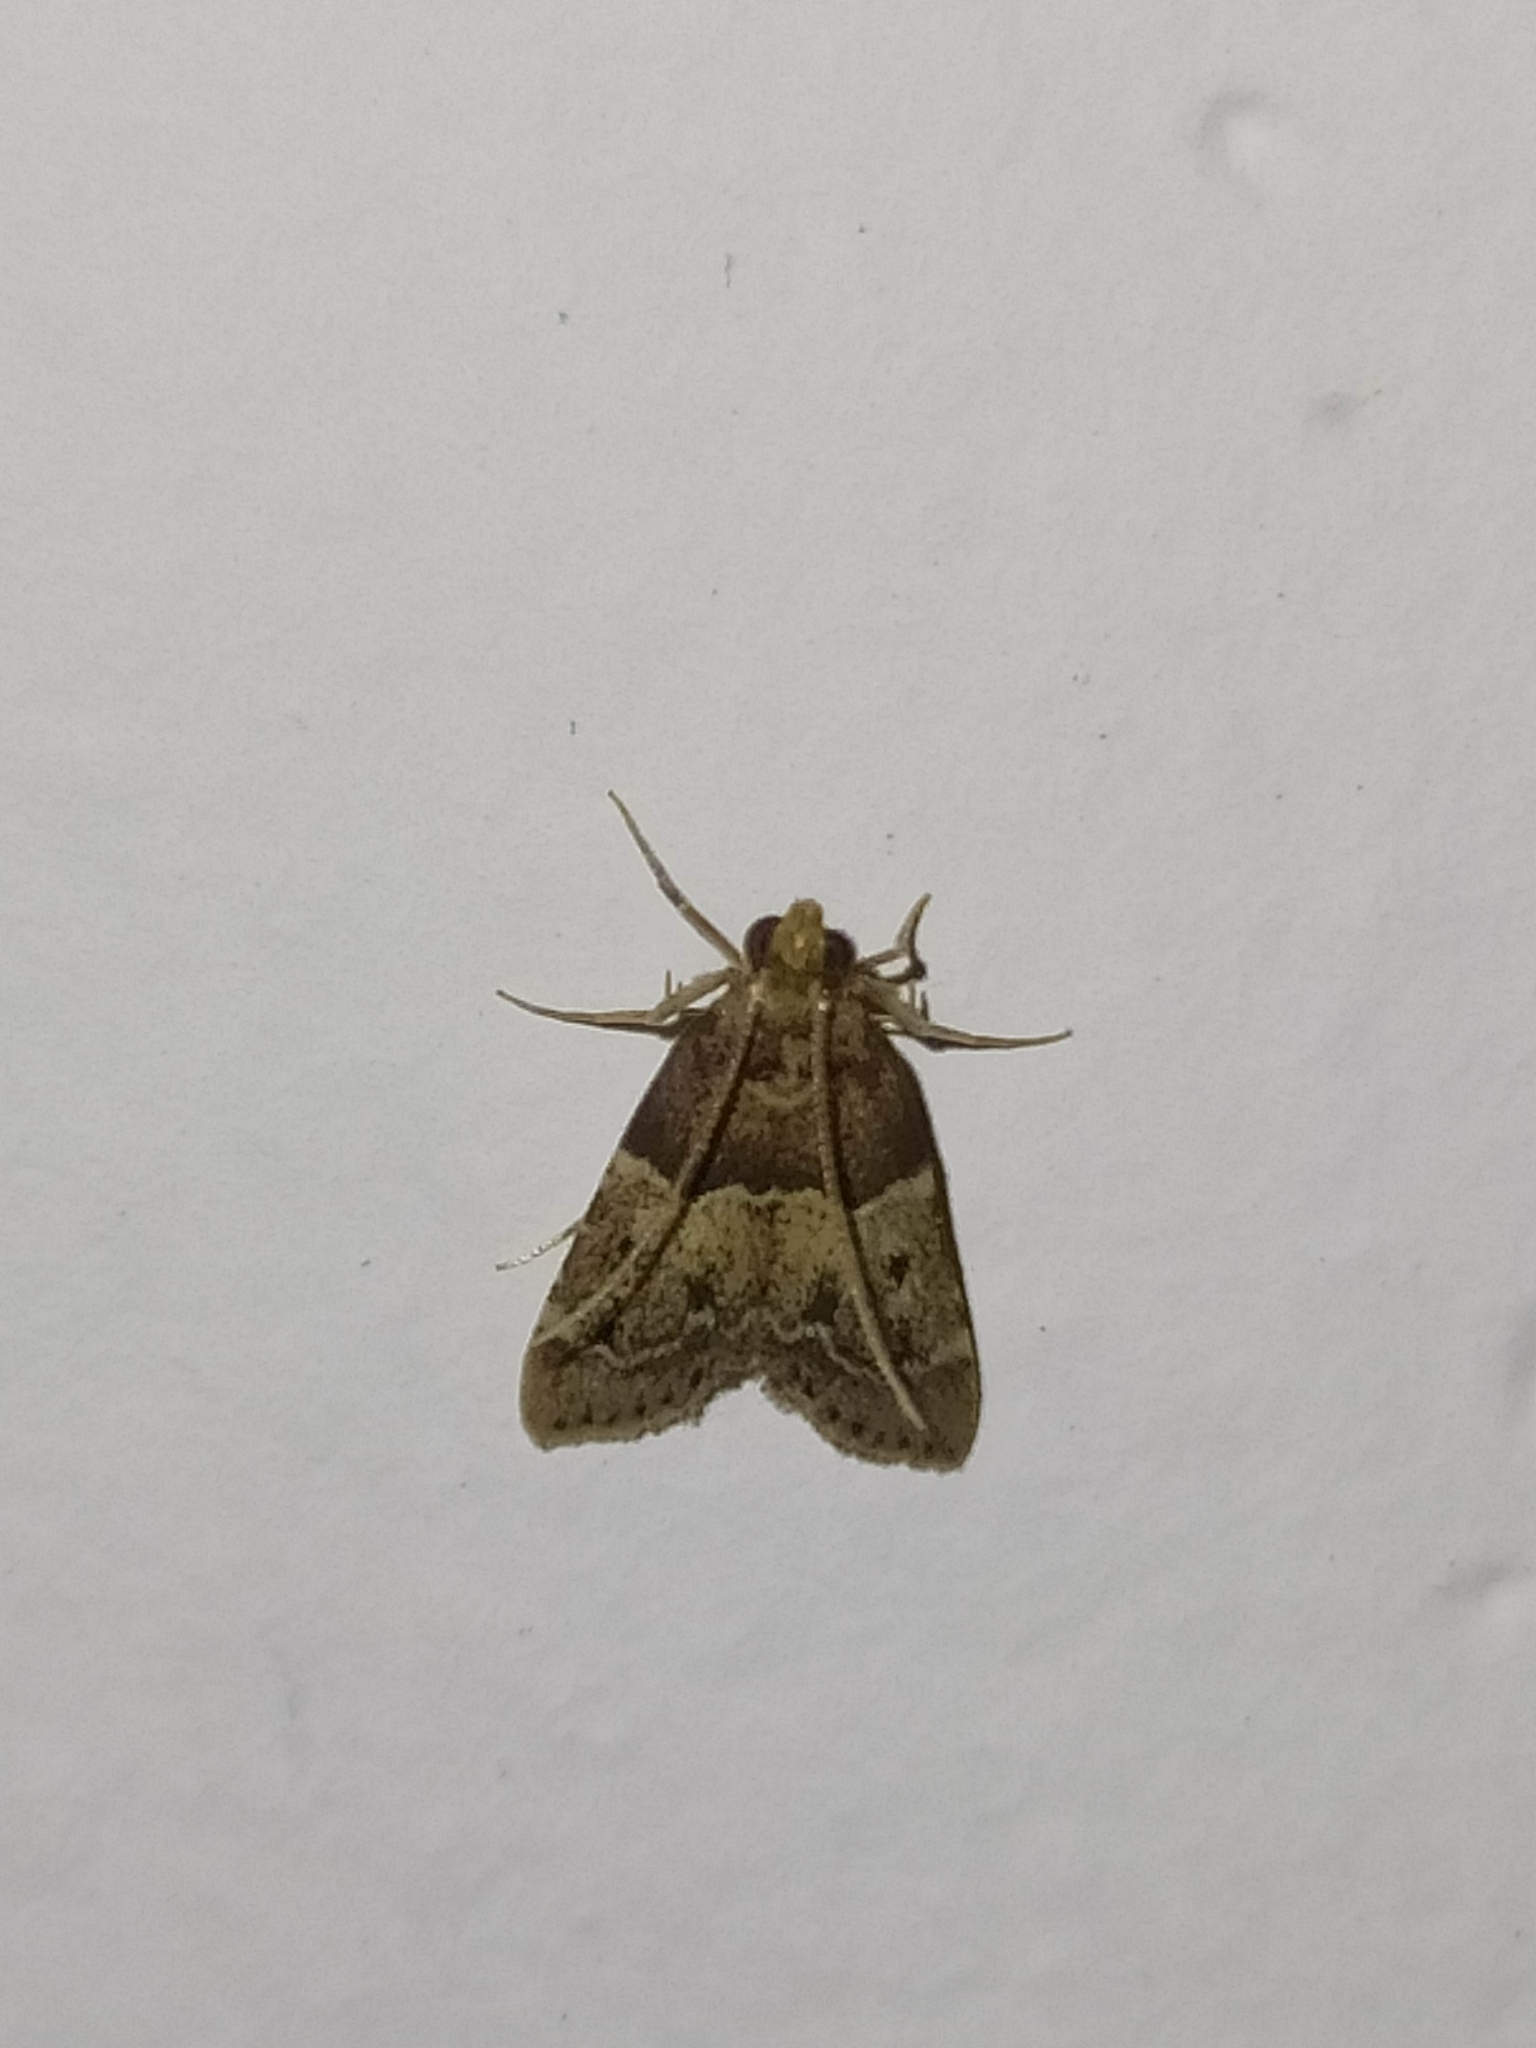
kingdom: Animalia
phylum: Arthropoda
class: Insecta
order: Lepidoptera
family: Pyralidae
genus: Pyralis
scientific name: Pyralis manihotalis
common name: Moth
